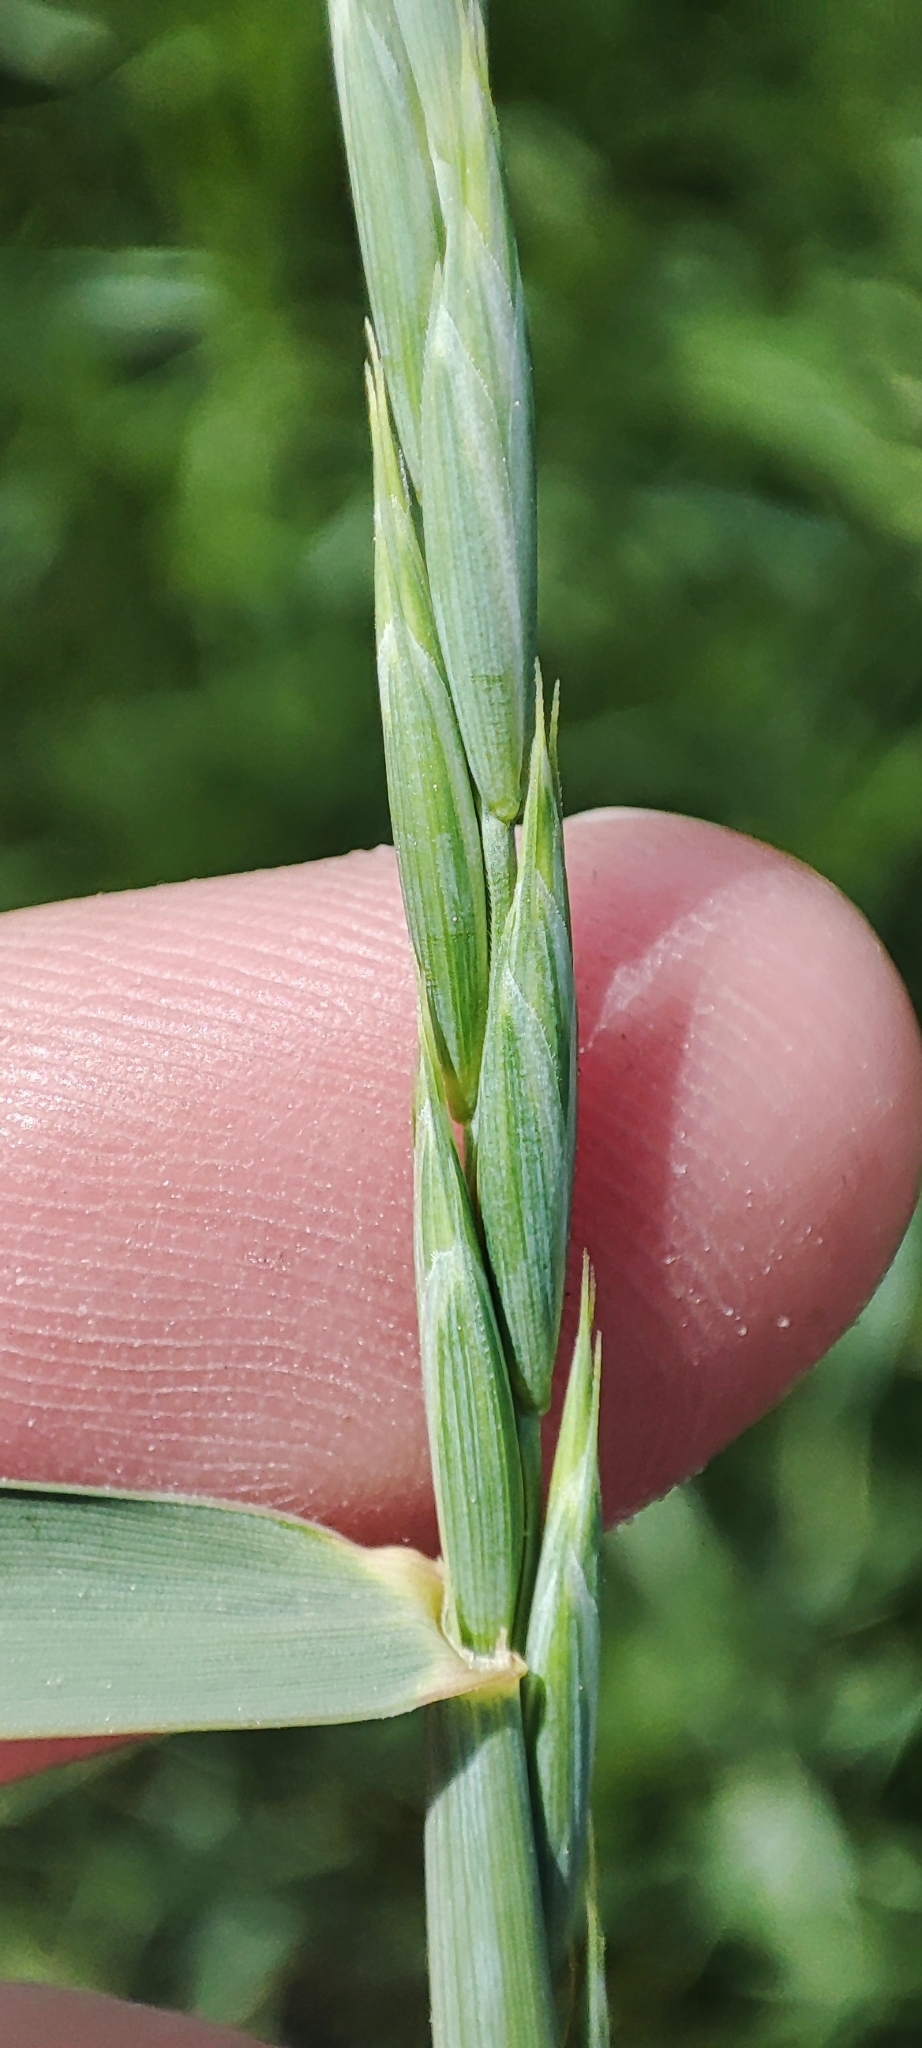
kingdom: Plantae
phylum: Tracheophyta
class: Liliopsida
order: Poales
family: Poaceae
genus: Elymus
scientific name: Elymus repens
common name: Quackgrass
